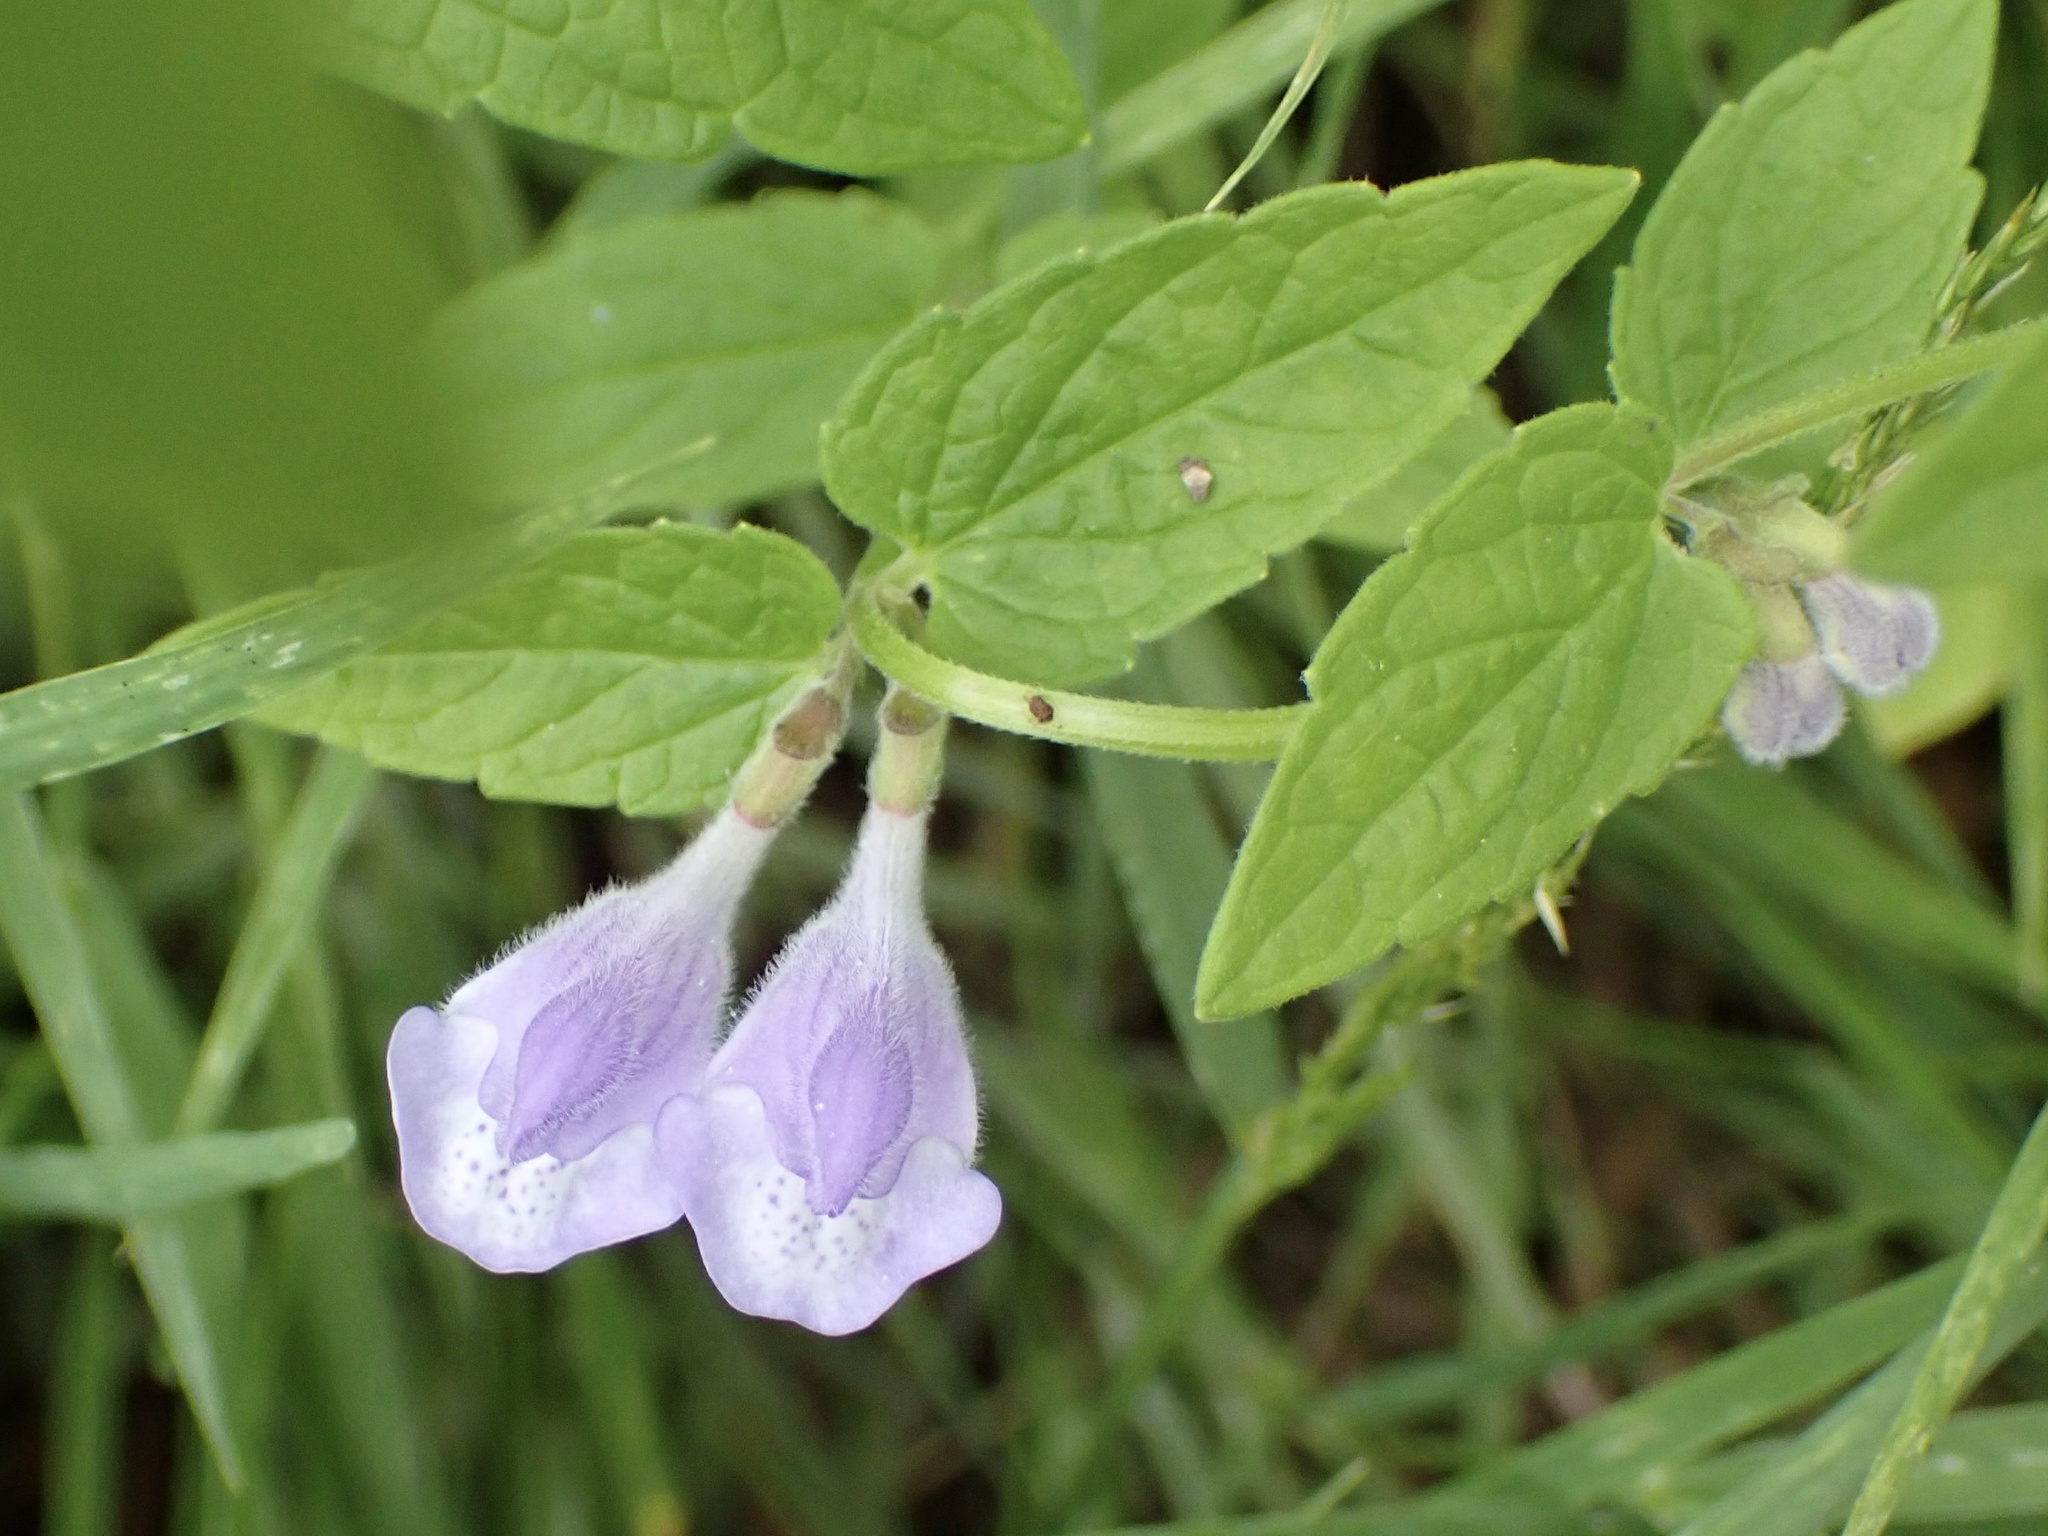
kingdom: Plantae
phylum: Tracheophyta
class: Magnoliopsida
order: Lamiales
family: Lamiaceae
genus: Scutellaria
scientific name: Scutellaria galericulata
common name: Skullcap
